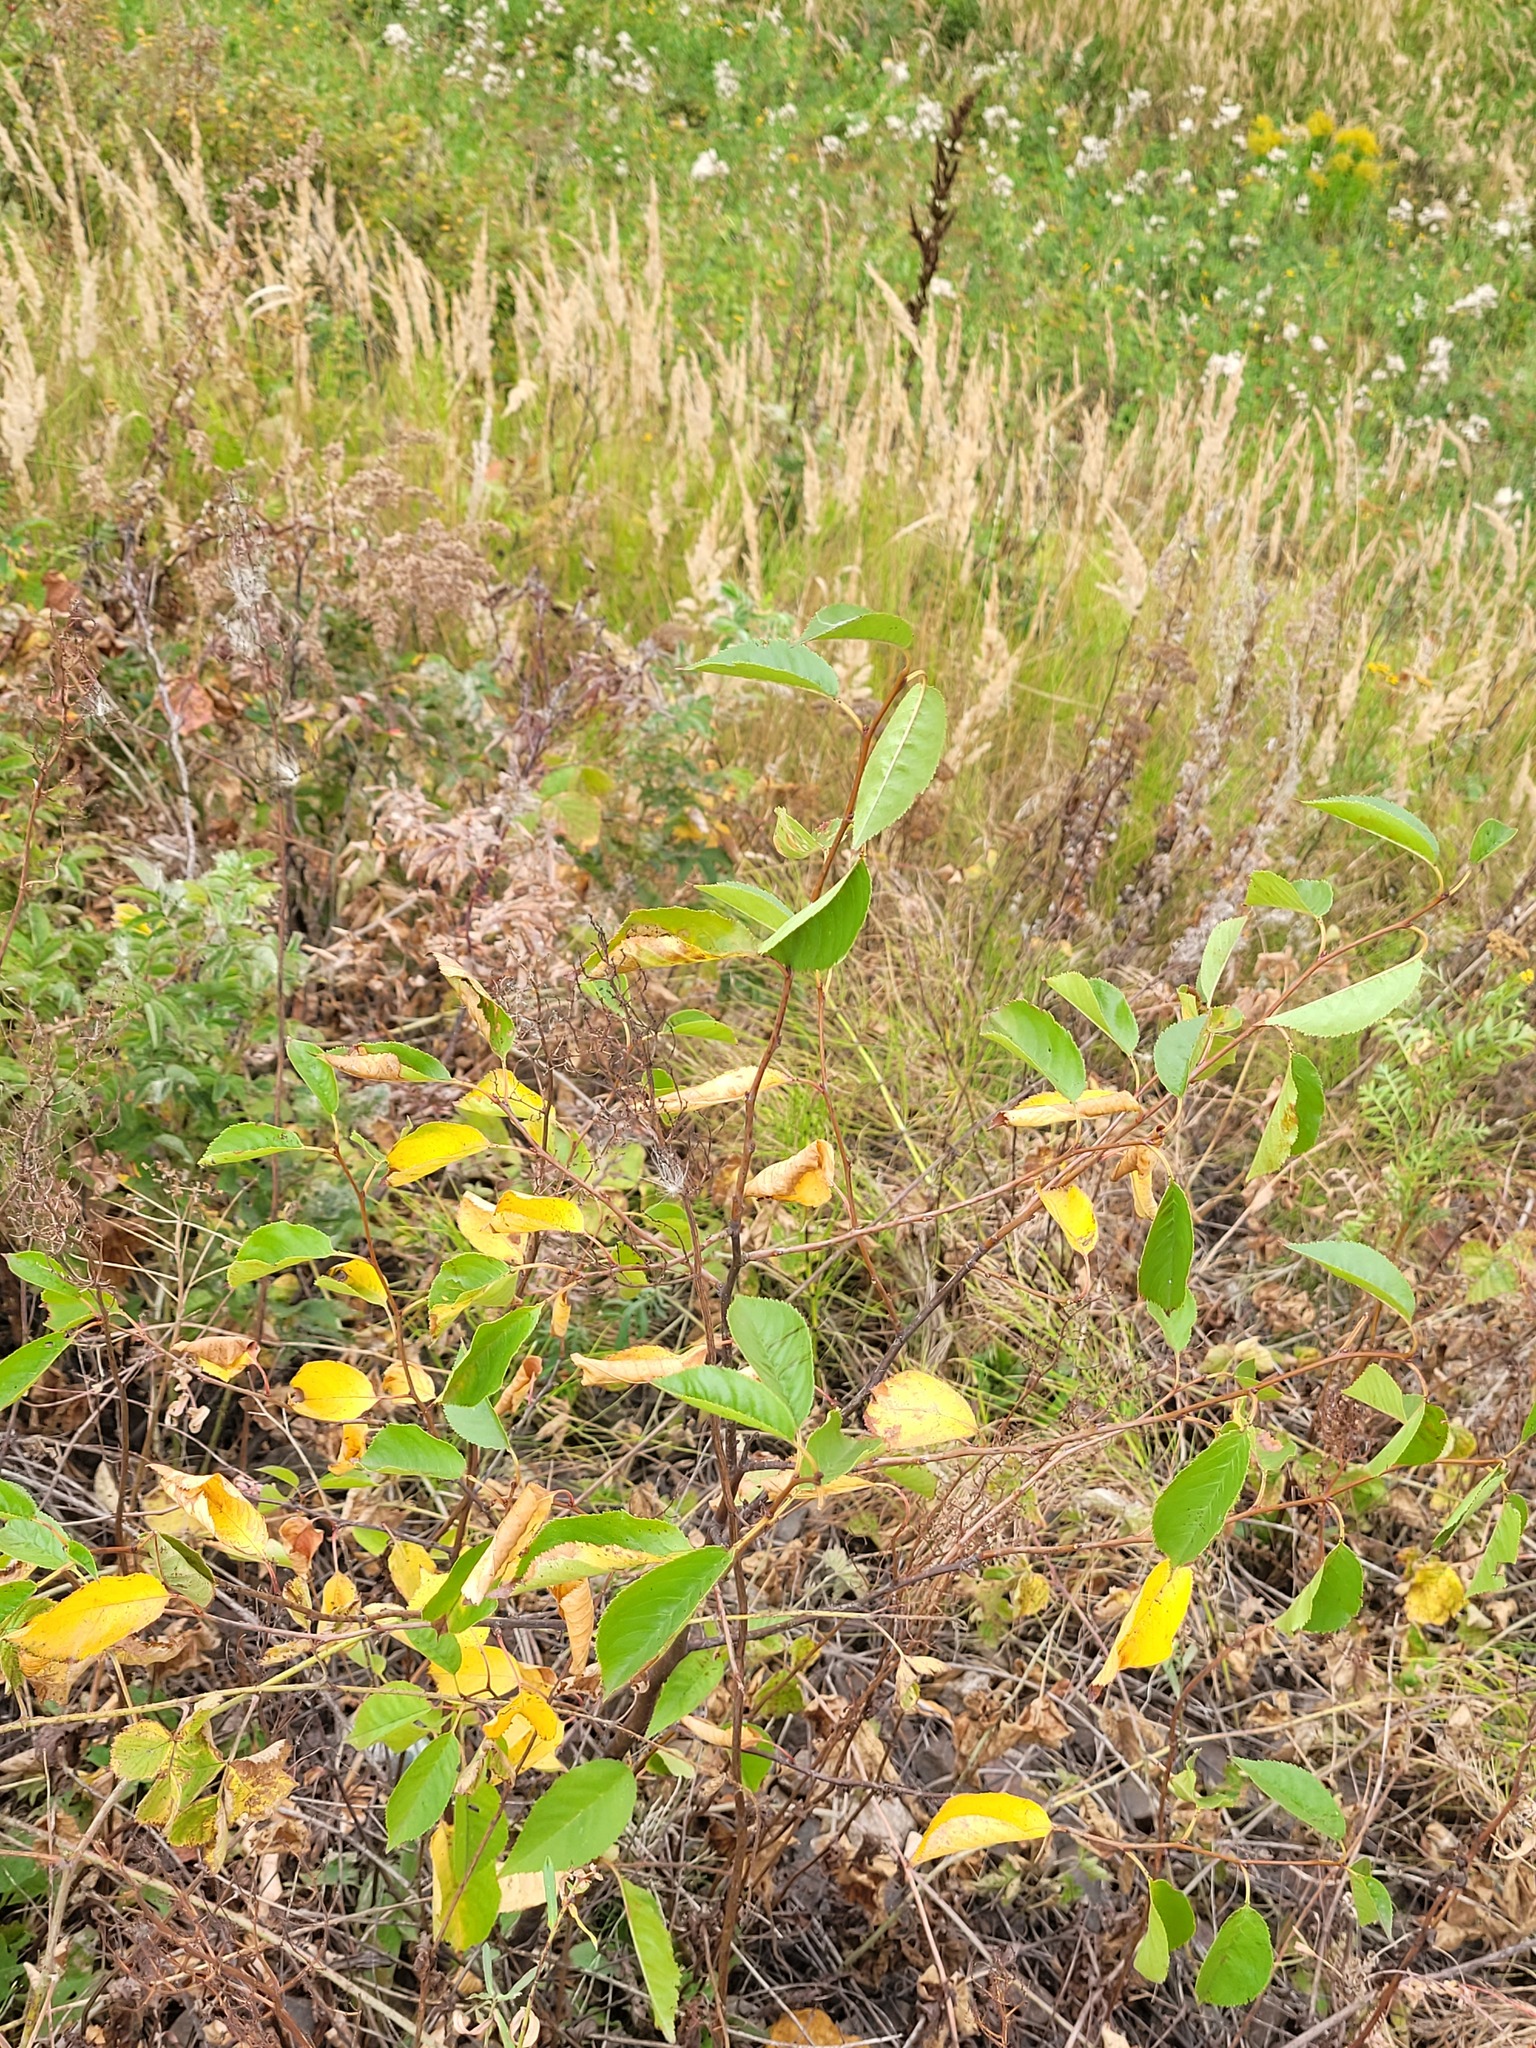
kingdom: Plantae
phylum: Tracheophyta
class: Magnoliopsida
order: Rosales
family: Rosaceae
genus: Prunus
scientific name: Prunus cerasus
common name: Morello cherry
